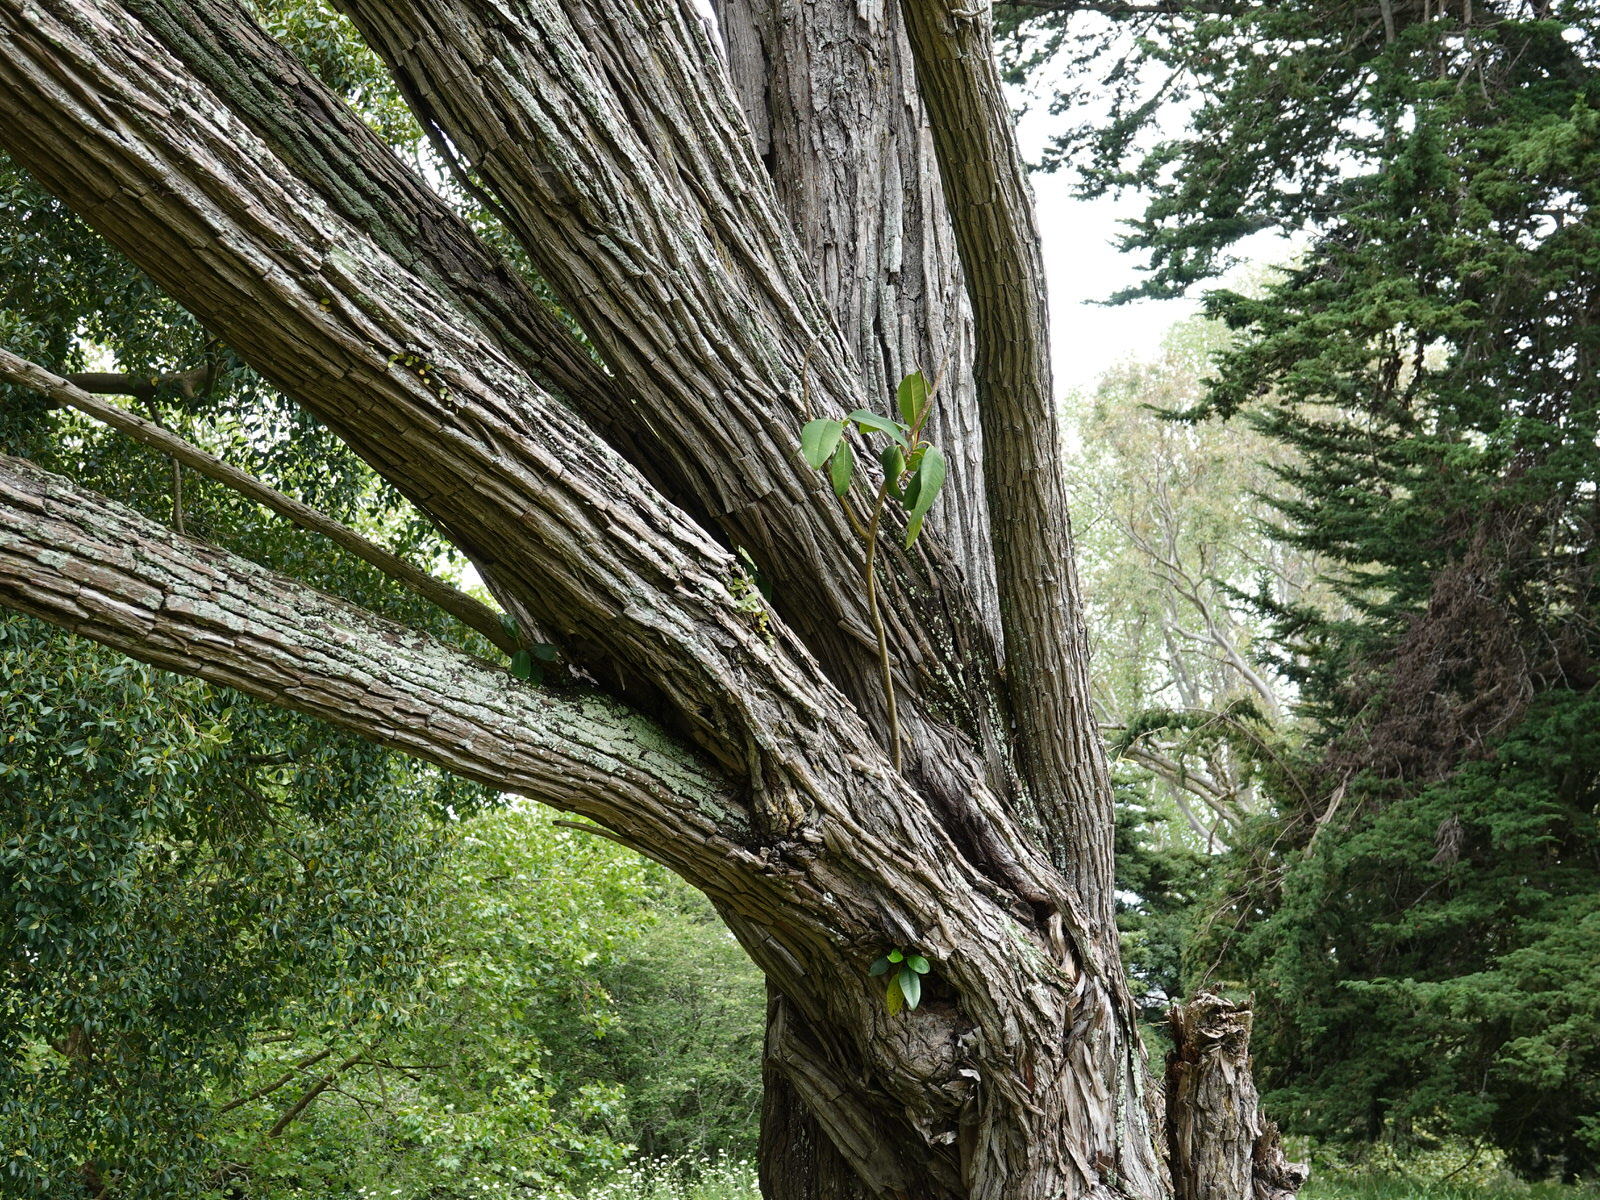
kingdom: Plantae
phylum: Tracheophyta
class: Magnoliopsida
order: Rosales
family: Moraceae
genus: Ficus
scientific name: Ficus macrophylla
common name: Moreton bay fig
